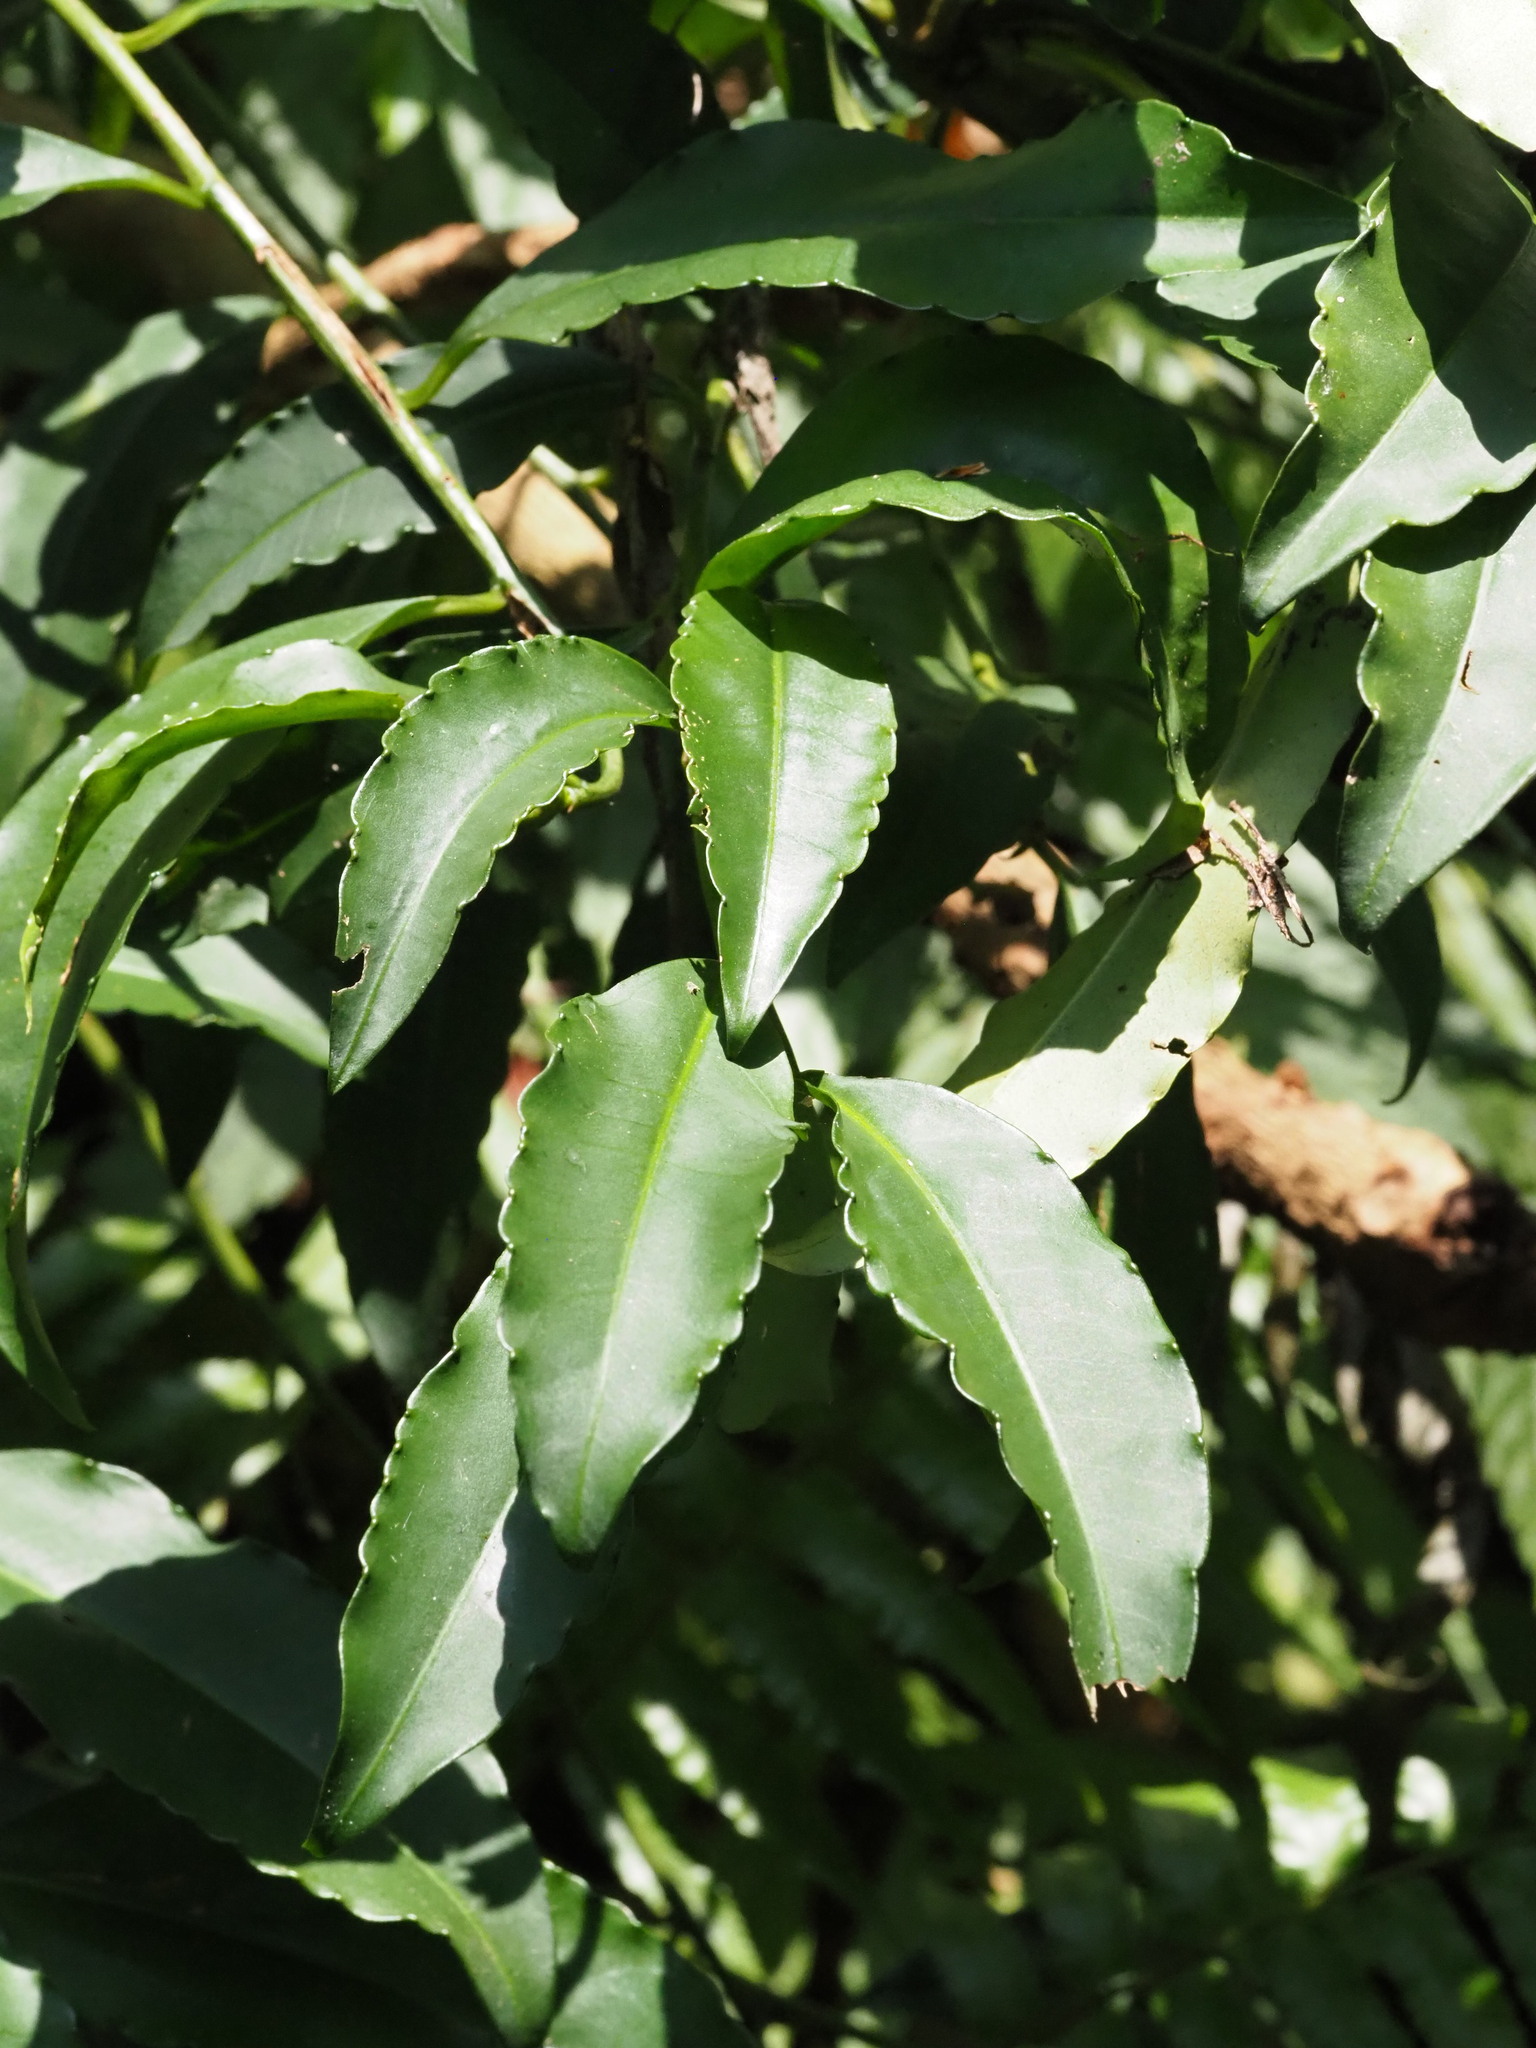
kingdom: Plantae
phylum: Tracheophyta
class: Magnoliopsida
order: Ericales
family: Primulaceae
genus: Ardisia
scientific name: Ardisia polysticta
